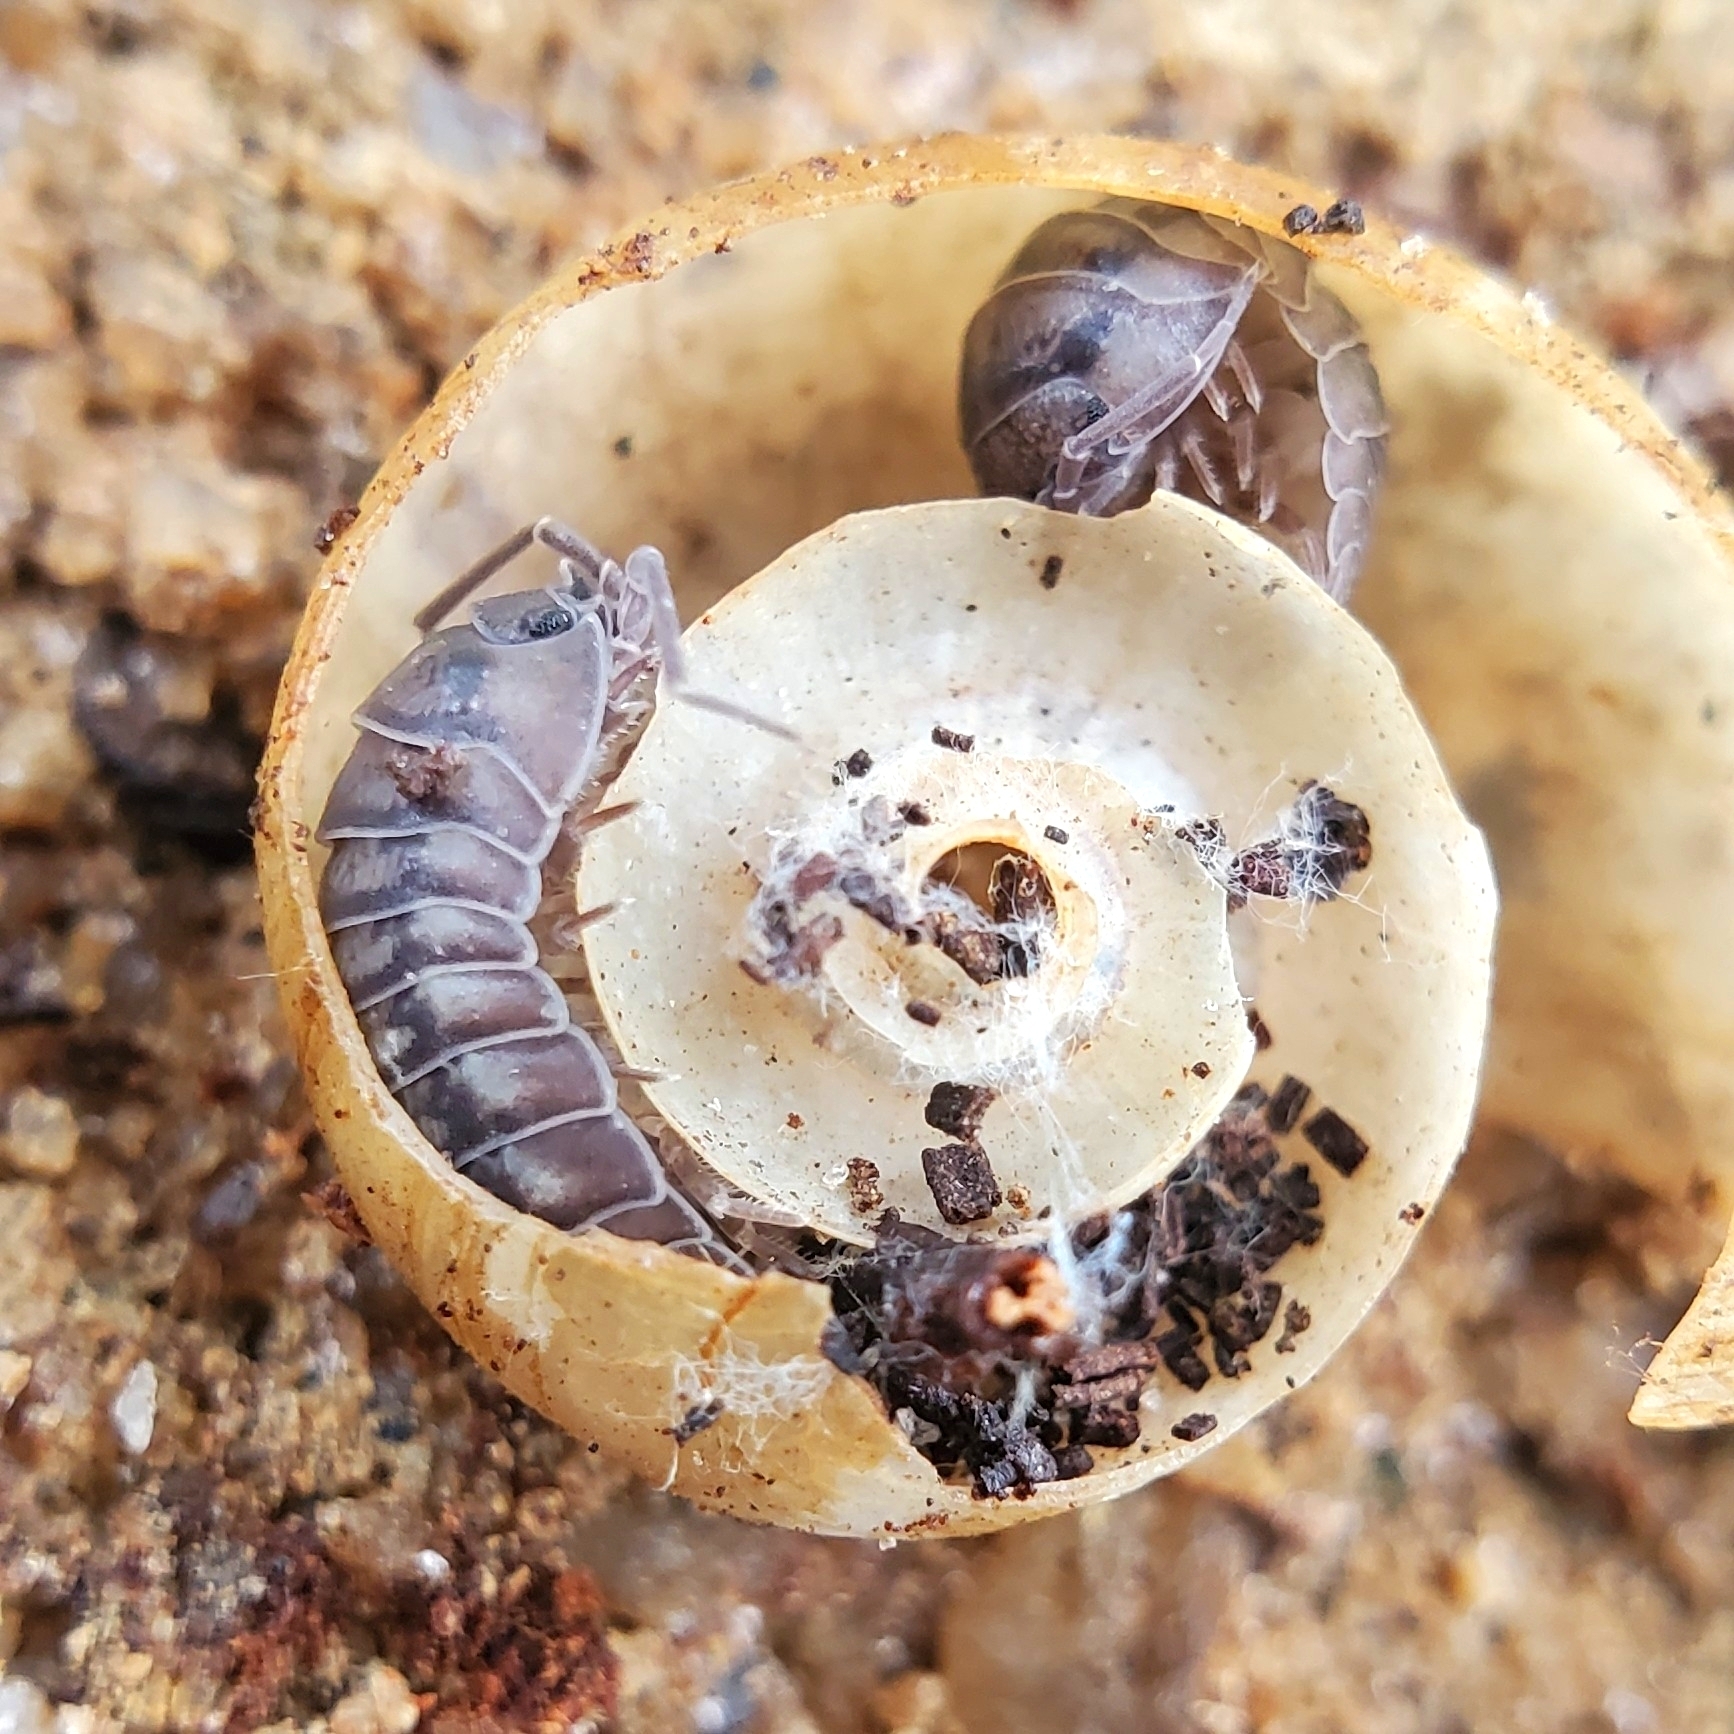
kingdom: Animalia
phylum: Arthropoda
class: Malacostraca
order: Isopoda
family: Armadillidiidae
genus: Armadillidium
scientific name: Armadillidium nasatum
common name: Isopod
